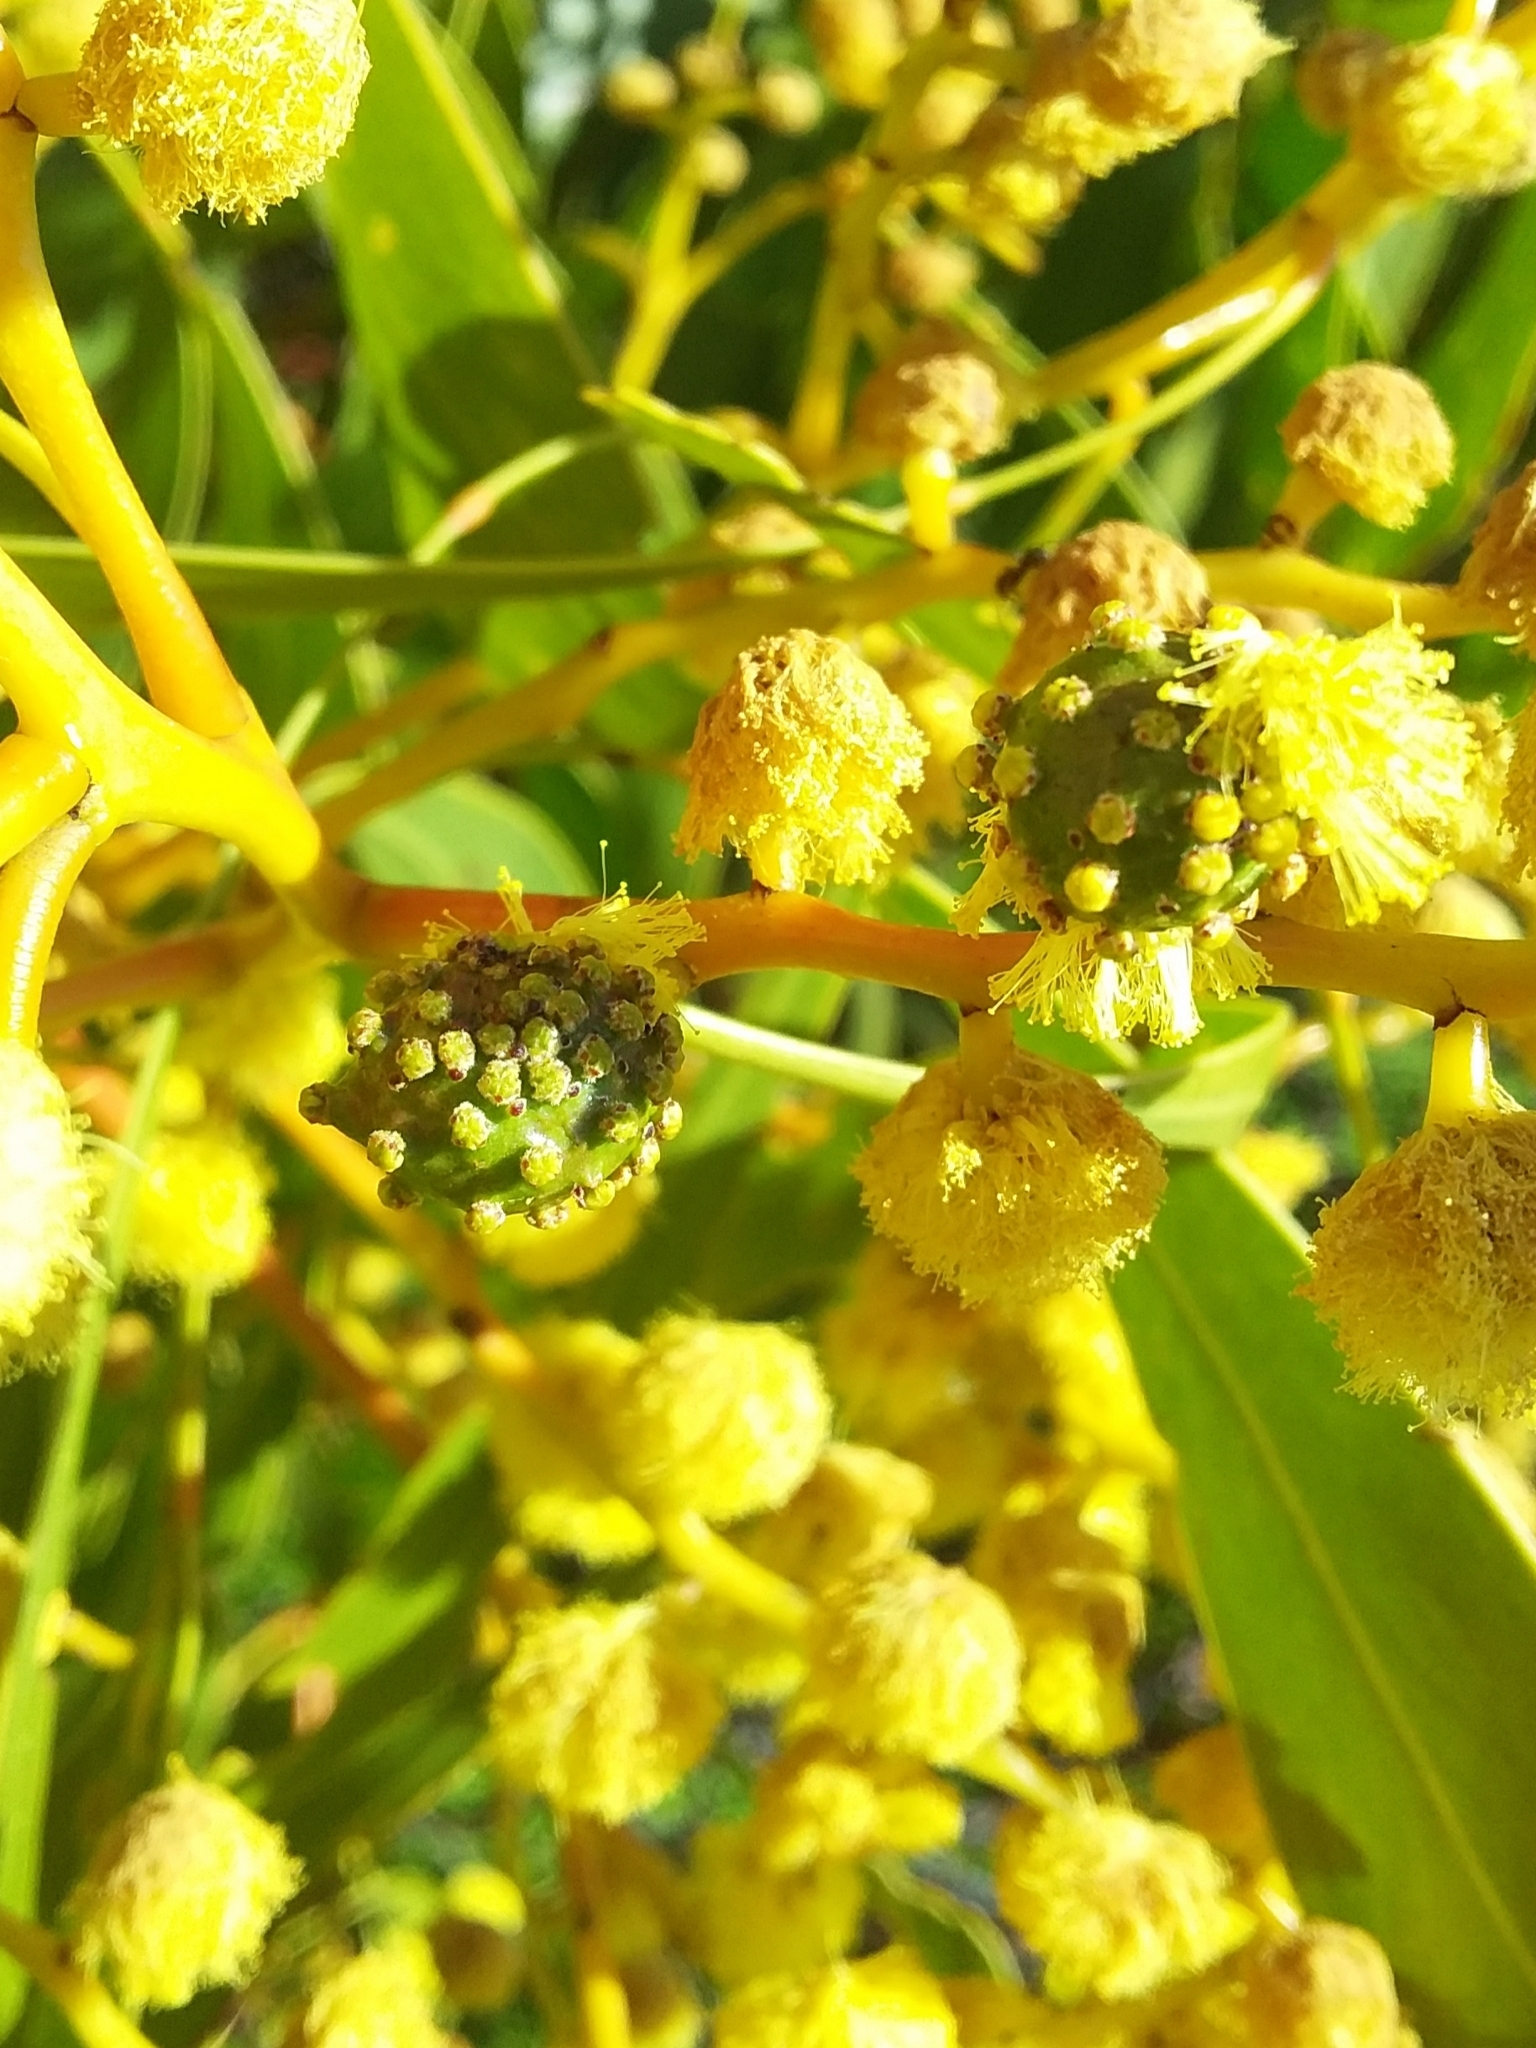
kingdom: Animalia
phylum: Arthropoda
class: Insecta
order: Hymenoptera
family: Pteromalidae
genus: Trichilogaster
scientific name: Trichilogaster signiventris
